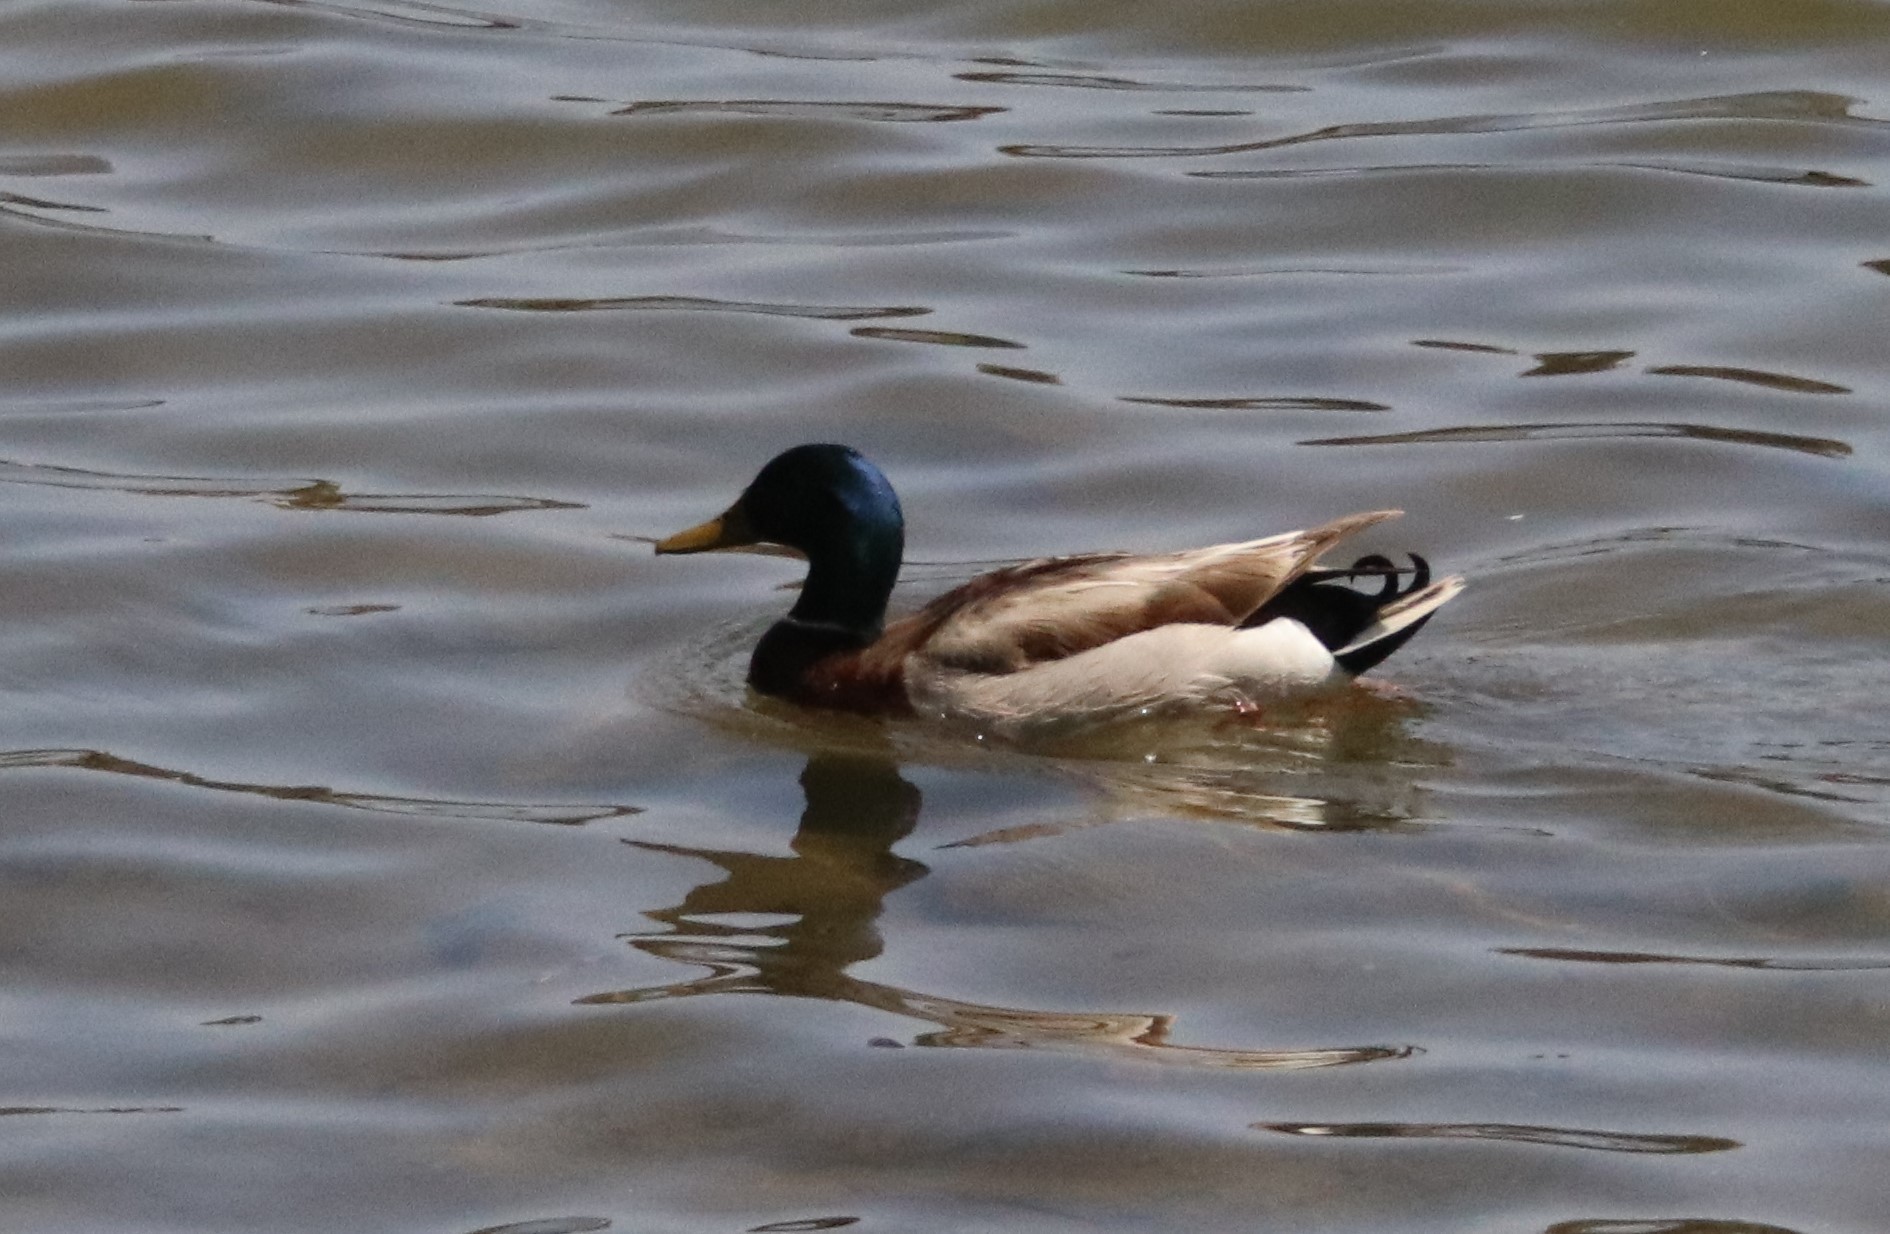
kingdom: Animalia
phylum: Chordata
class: Aves
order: Anseriformes
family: Anatidae
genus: Anas
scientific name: Anas platyrhynchos
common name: Mallard
